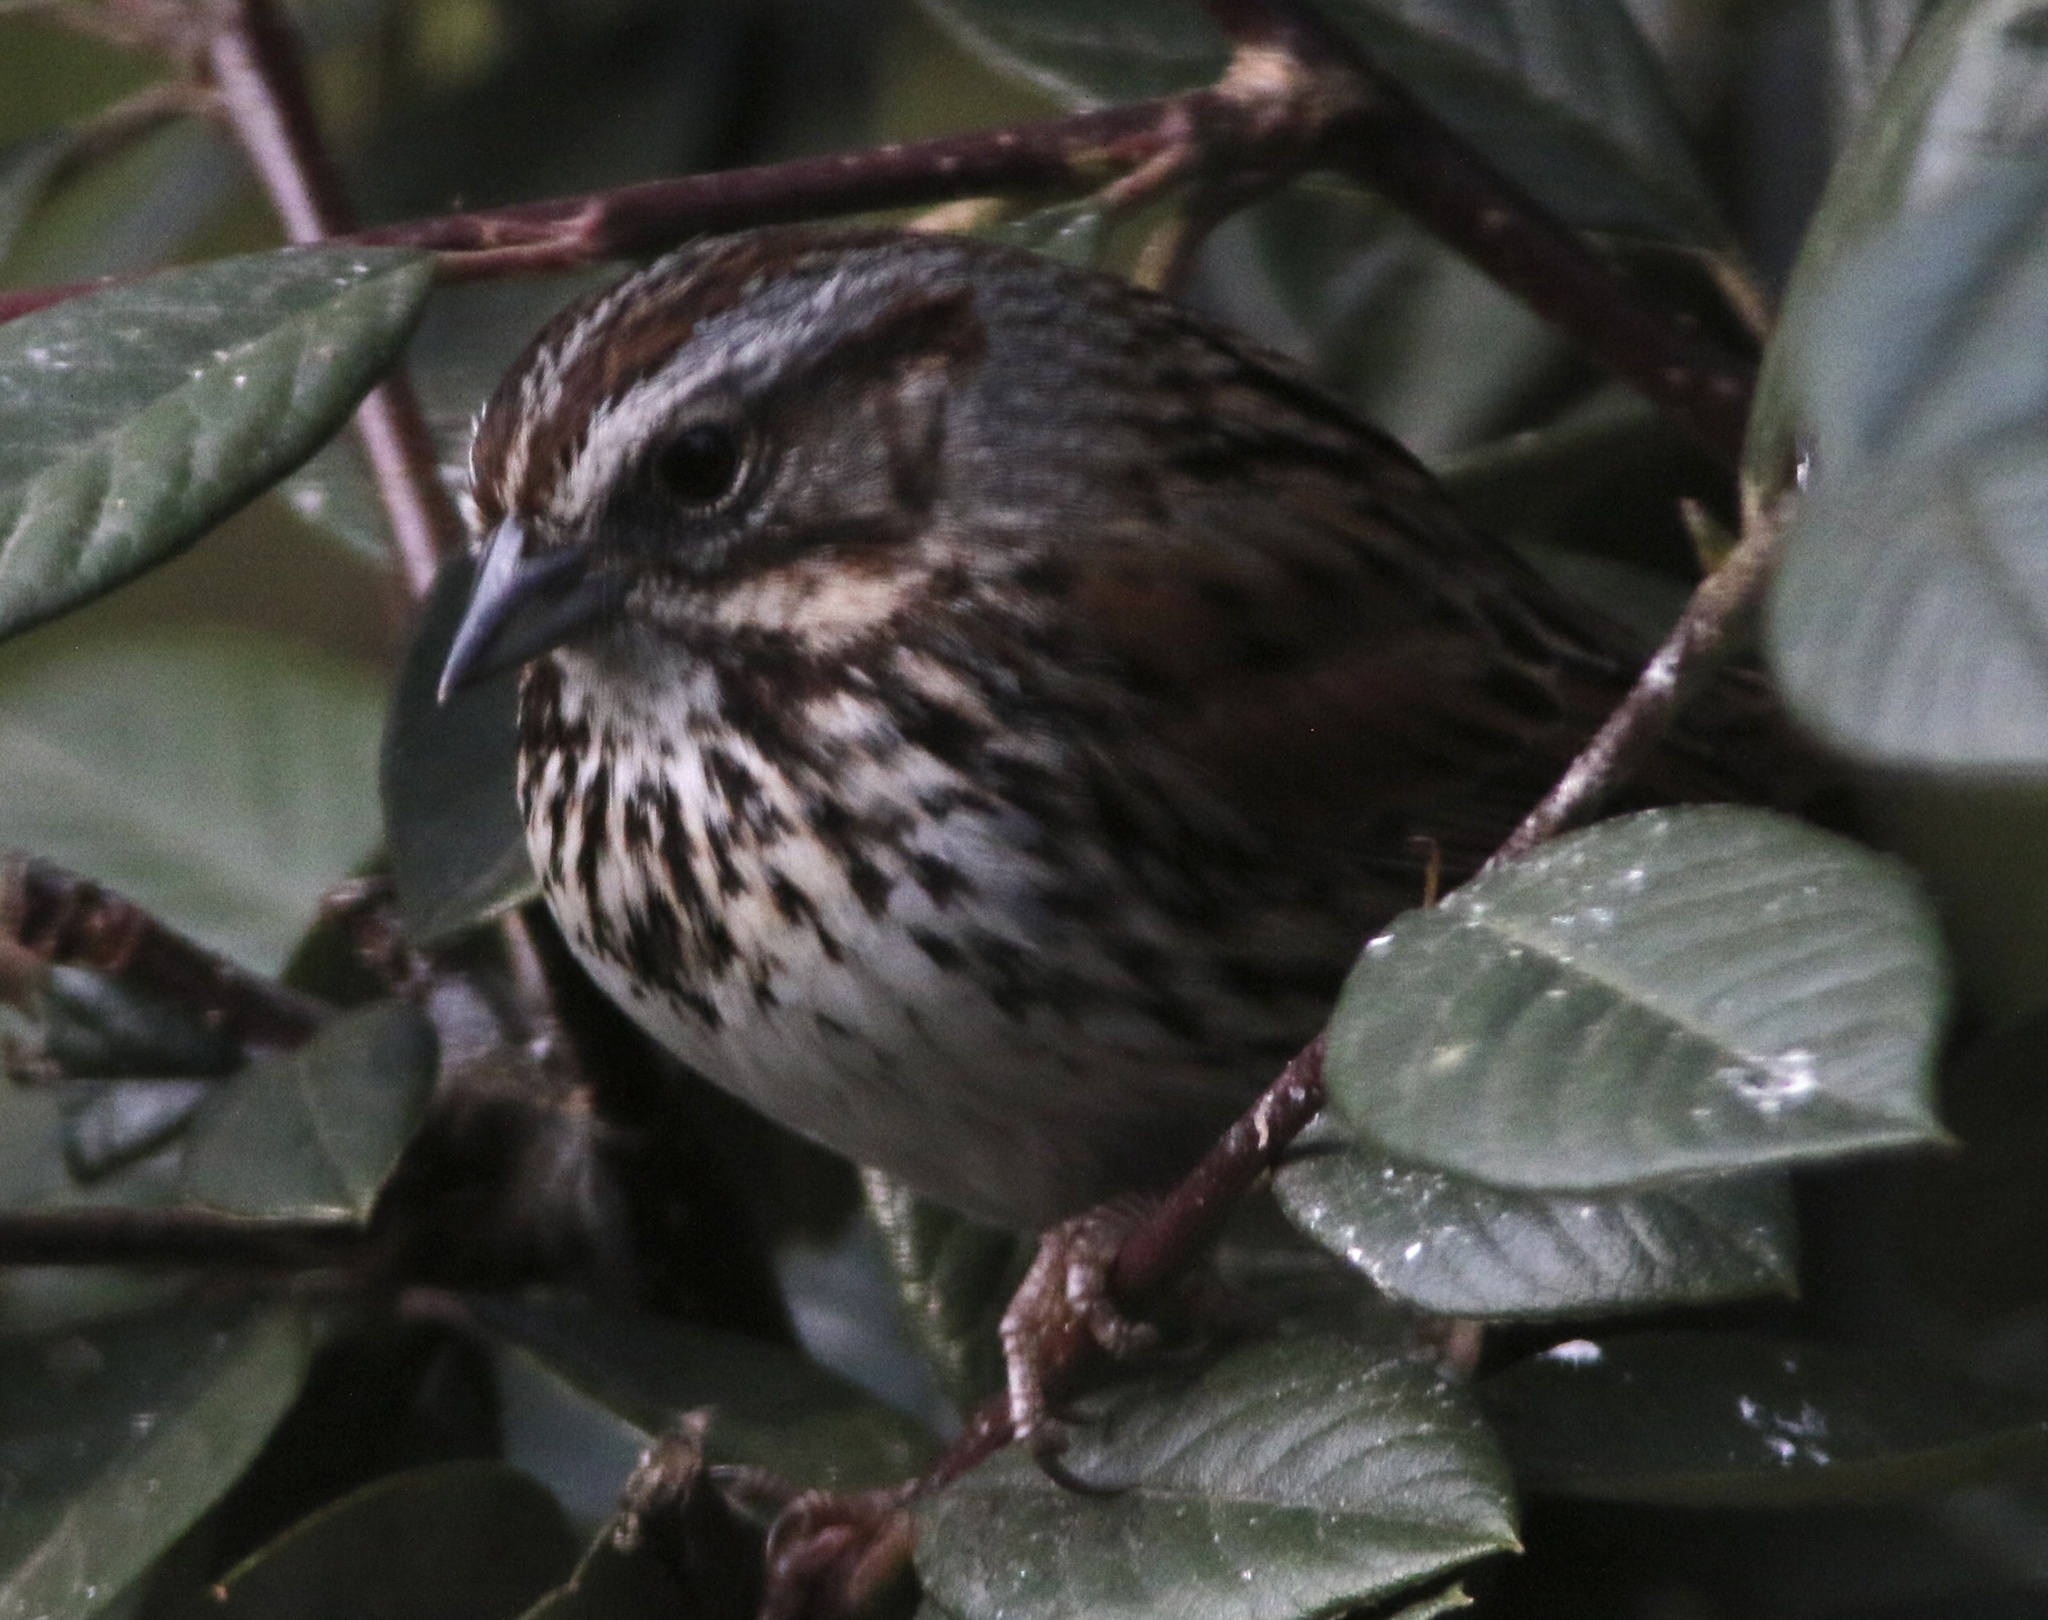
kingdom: Animalia
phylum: Chordata
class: Aves
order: Passeriformes
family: Passerellidae
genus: Melospiza
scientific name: Melospiza melodia
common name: Song sparrow
